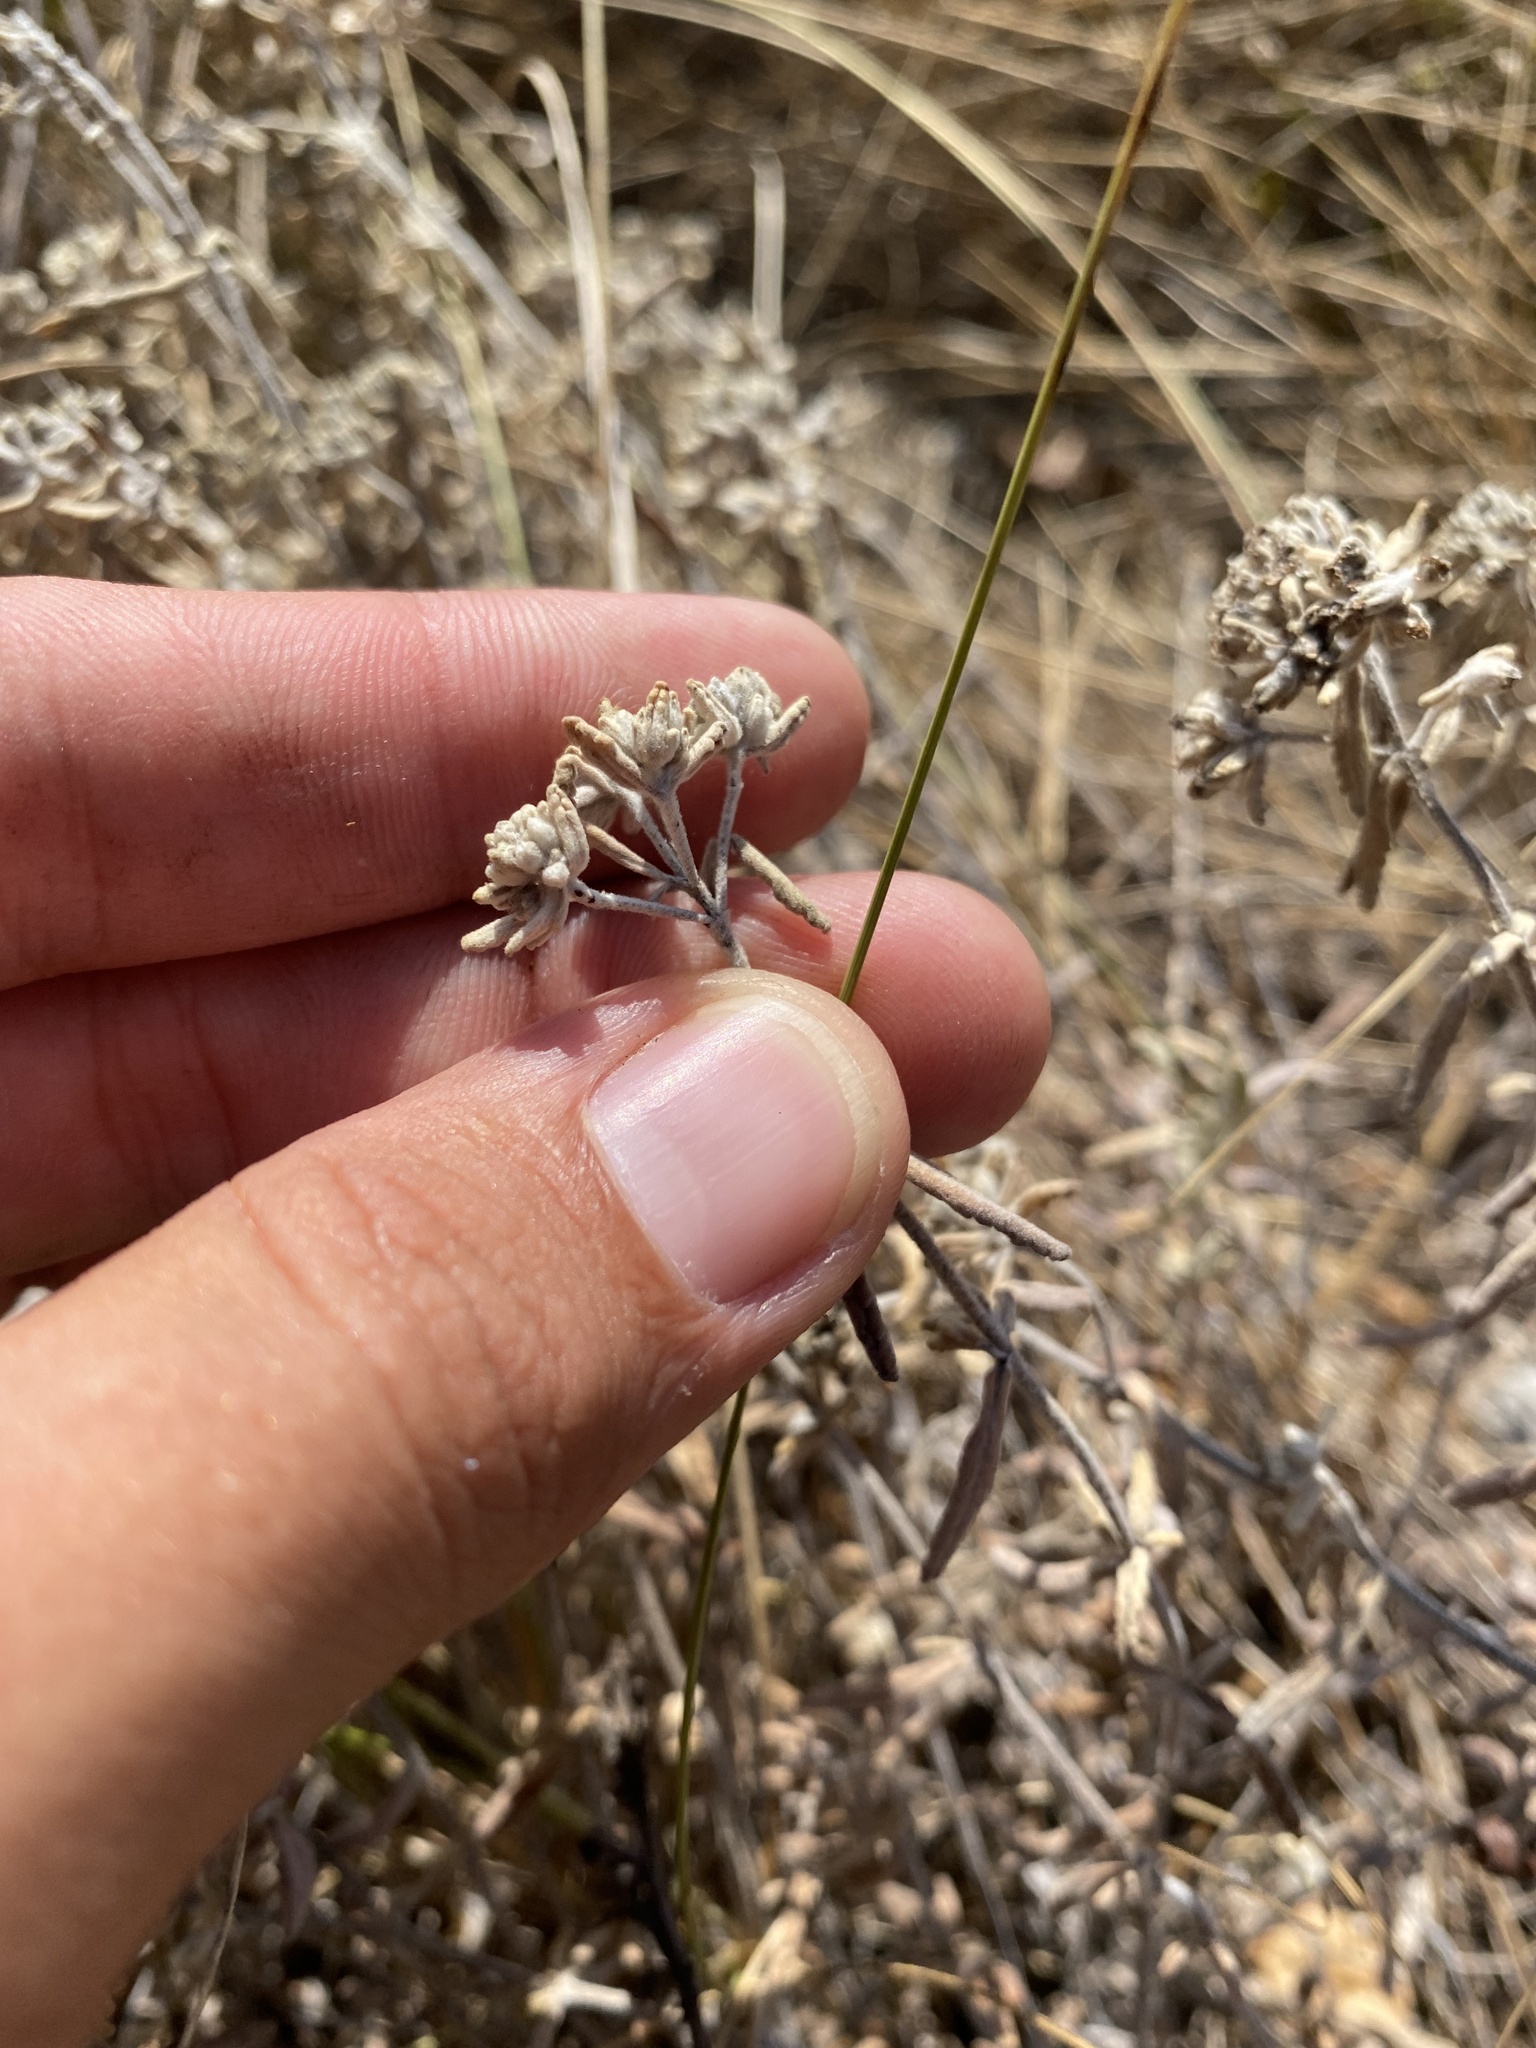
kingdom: Plantae
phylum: Tracheophyta
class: Magnoliopsida
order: Lamiales
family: Lamiaceae
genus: Teucrium
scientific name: Teucrium polium
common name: Poley
